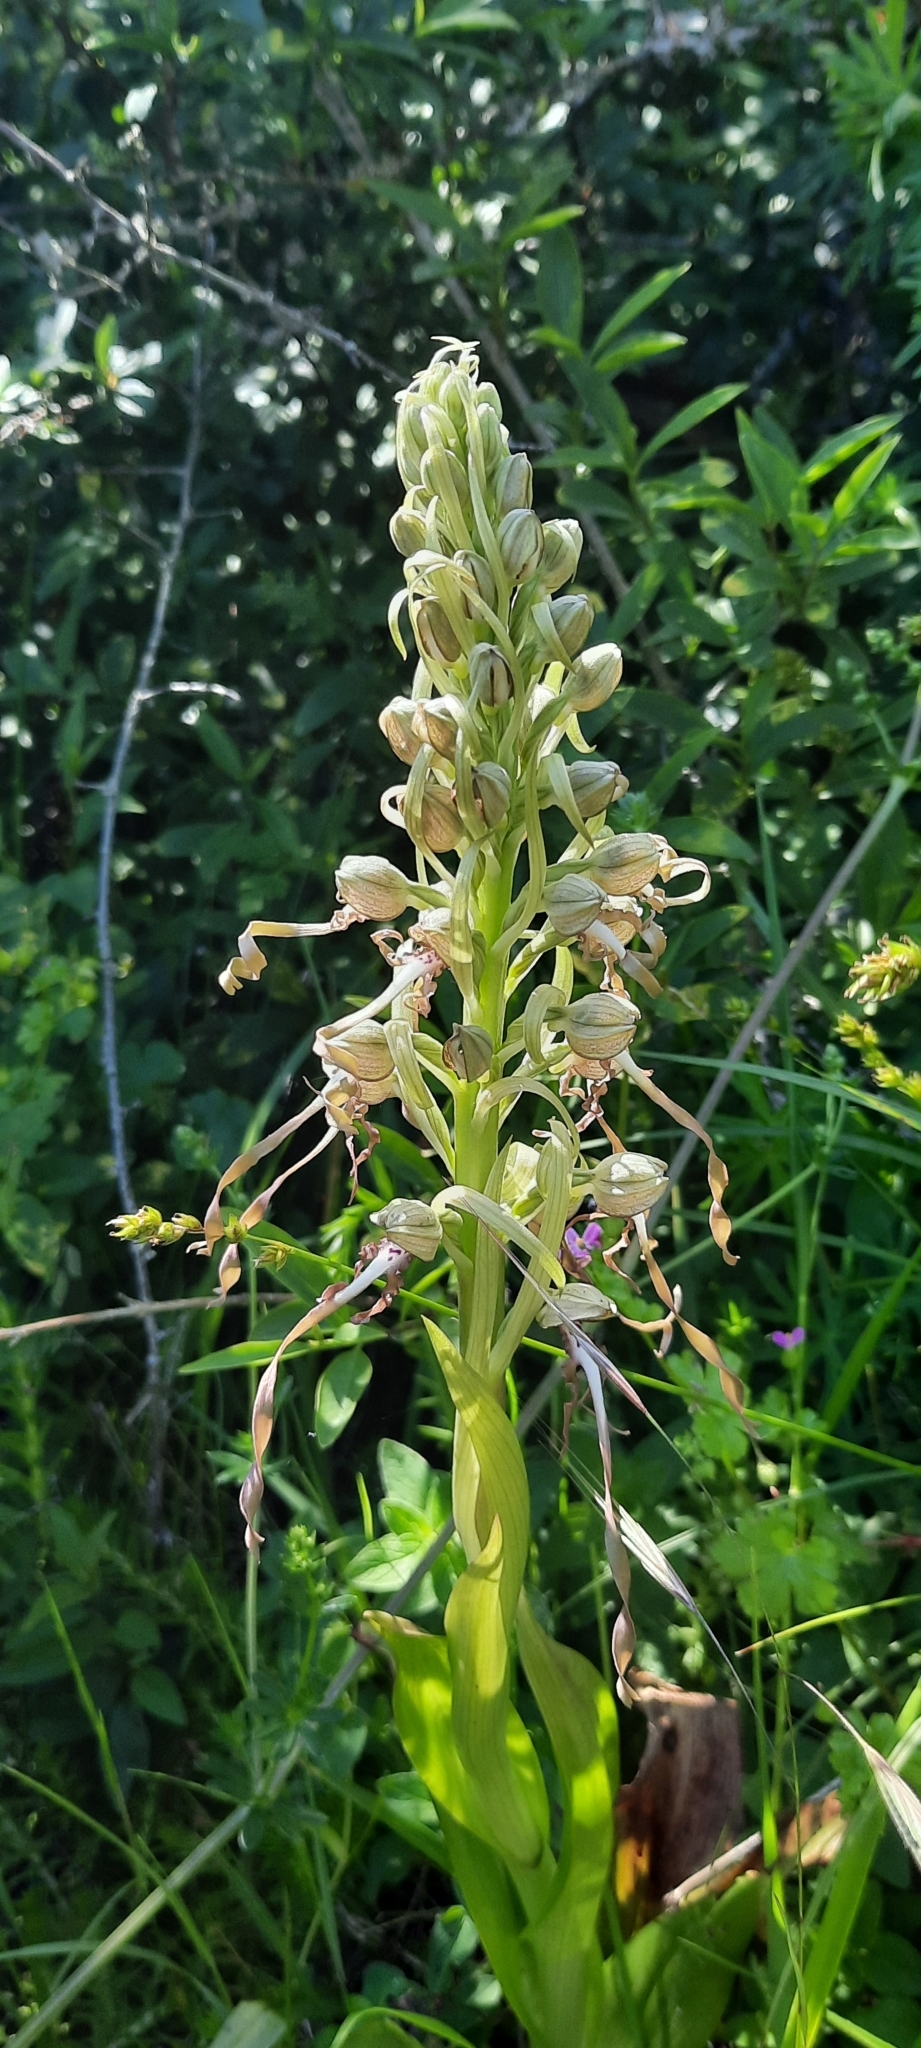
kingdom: Plantae
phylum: Tracheophyta
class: Liliopsida
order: Asparagales
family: Orchidaceae
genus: Himantoglossum
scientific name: Himantoglossum hircinum
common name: Lizard orchid
